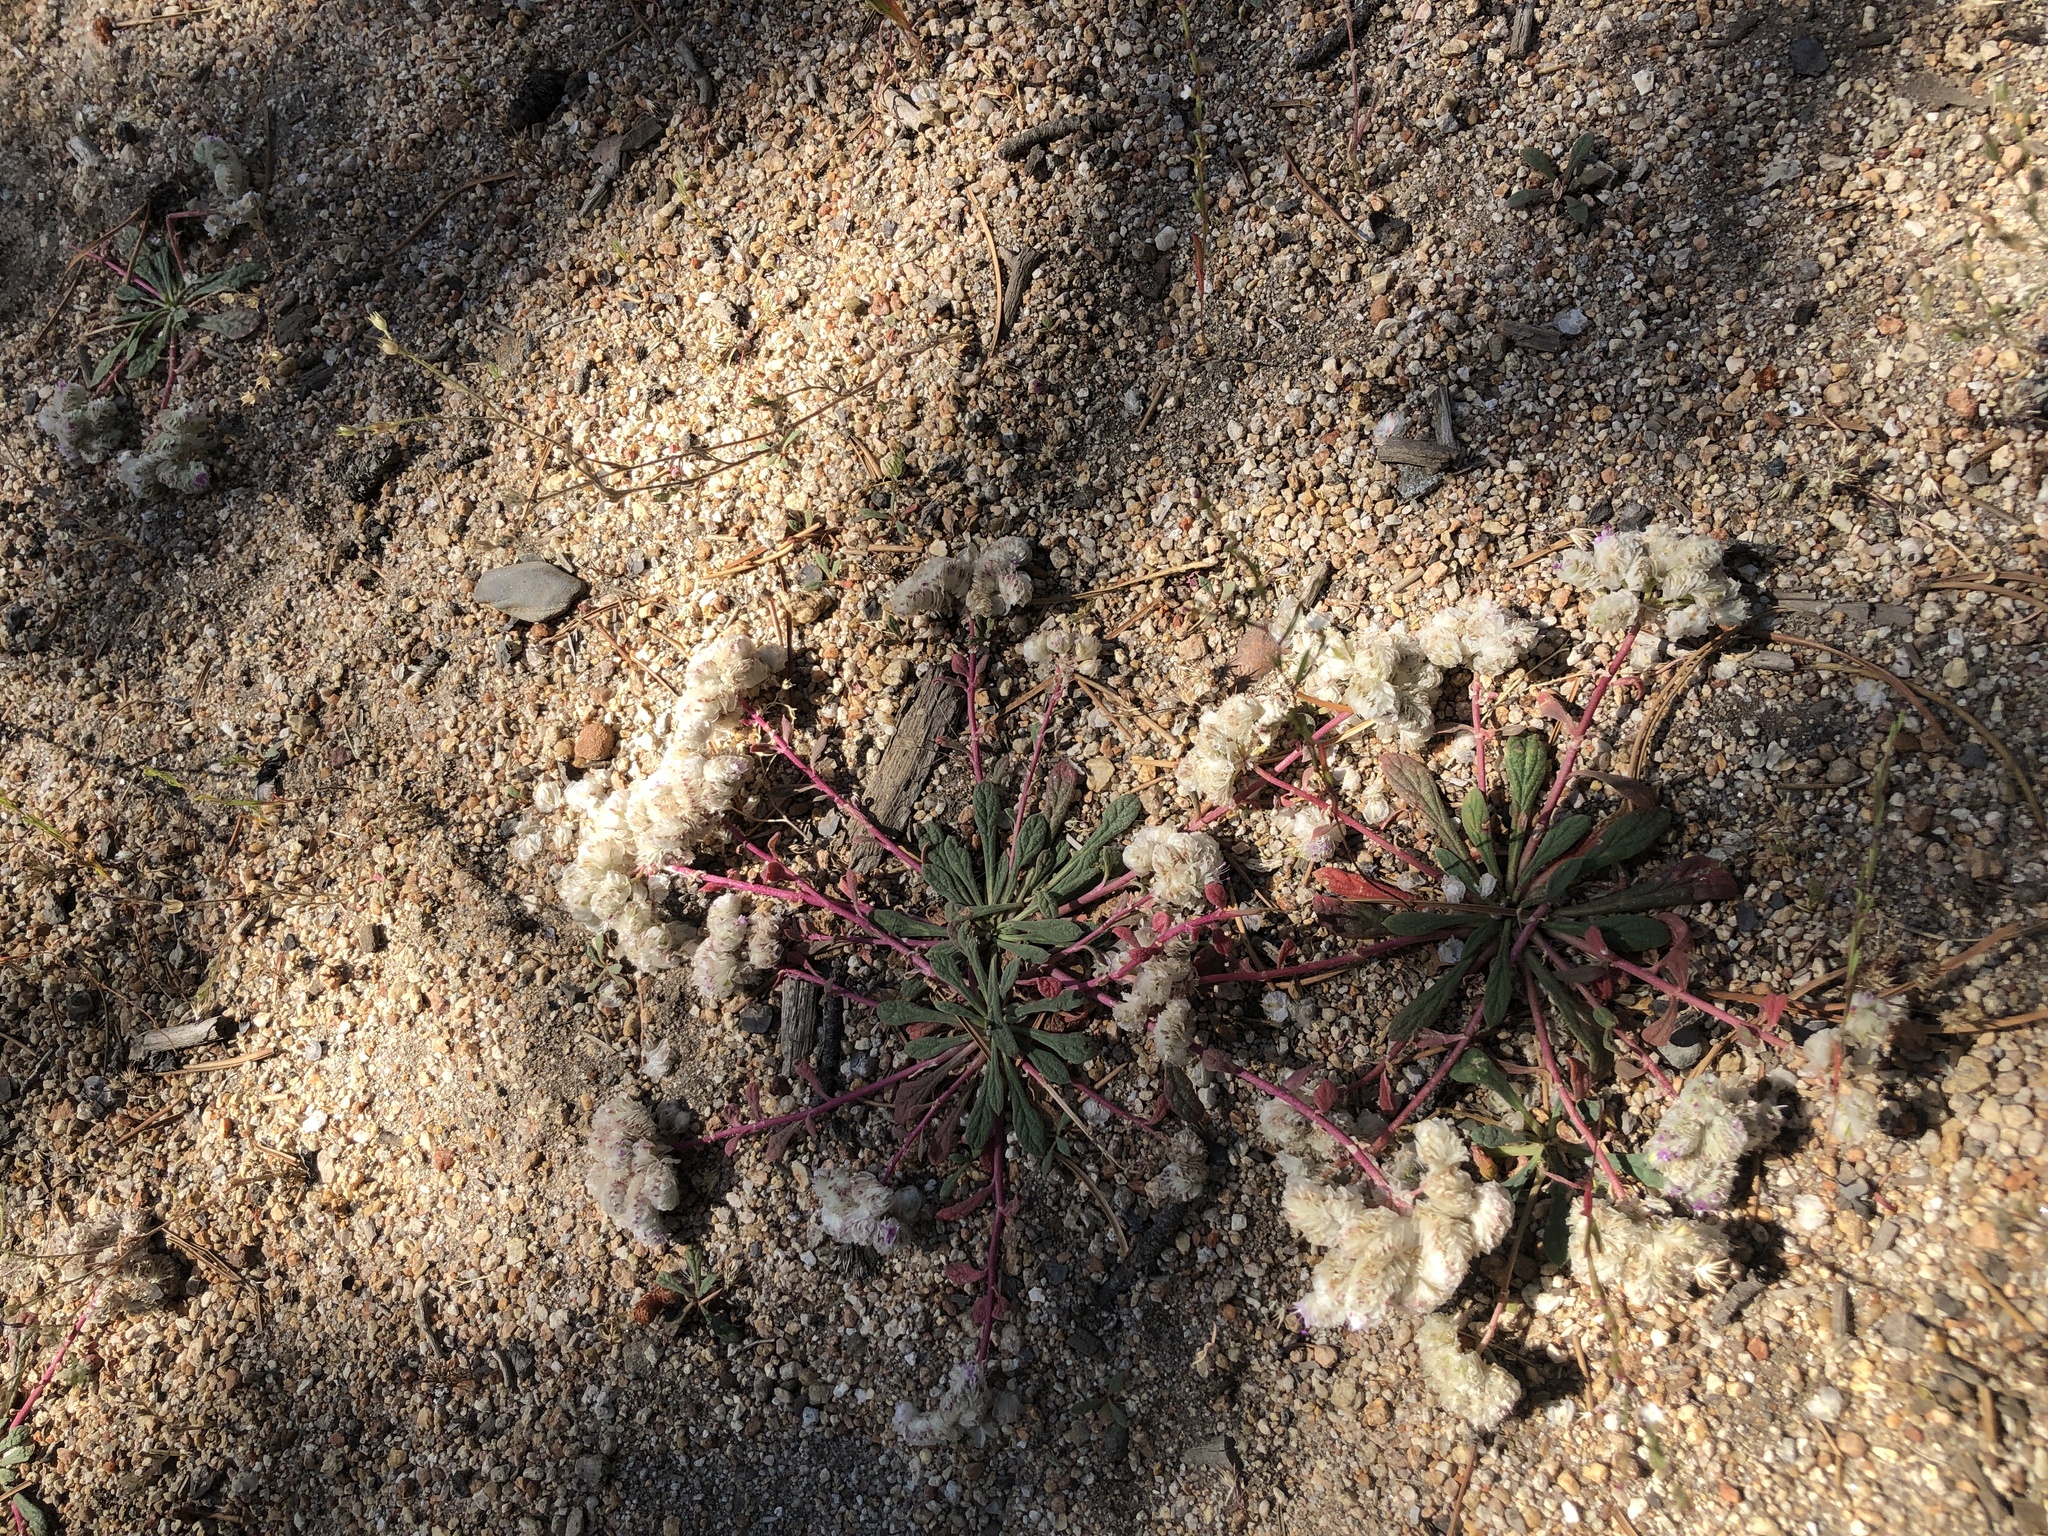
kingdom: Plantae
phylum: Tracheophyta
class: Magnoliopsida
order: Caryophyllales
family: Montiaceae
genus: Calyptridium
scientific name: Calyptridium monospermum
